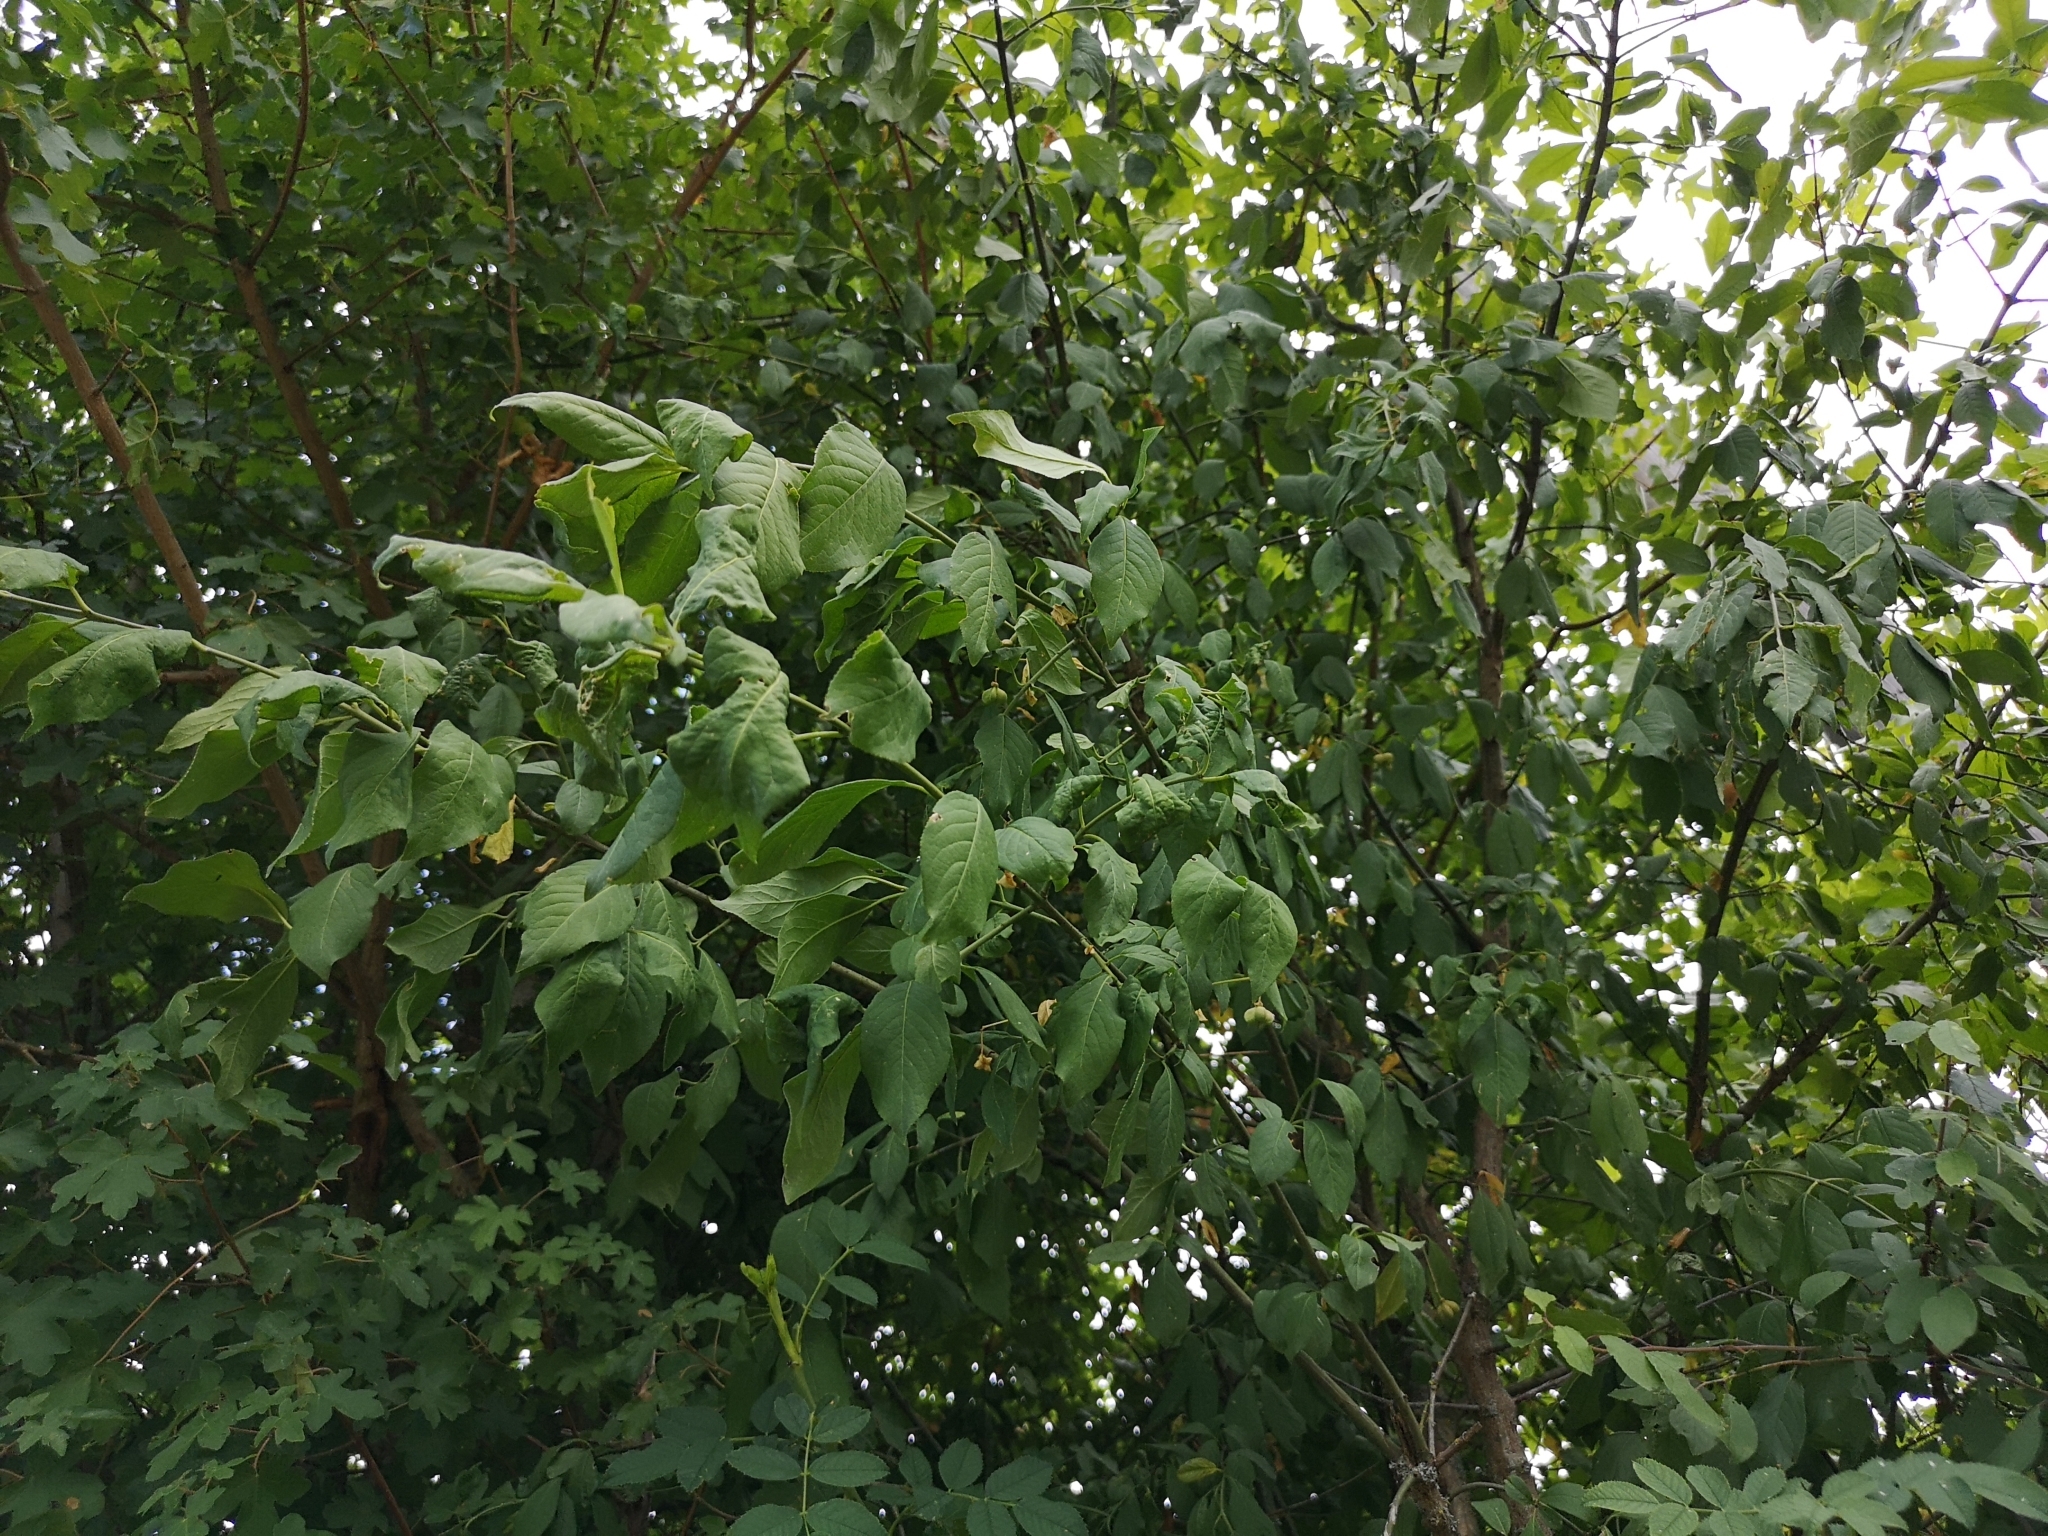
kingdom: Plantae
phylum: Tracheophyta
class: Magnoliopsida
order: Celastrales
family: Celastraceae
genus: Euonymus
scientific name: Euonymus europaeus
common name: Spindle
